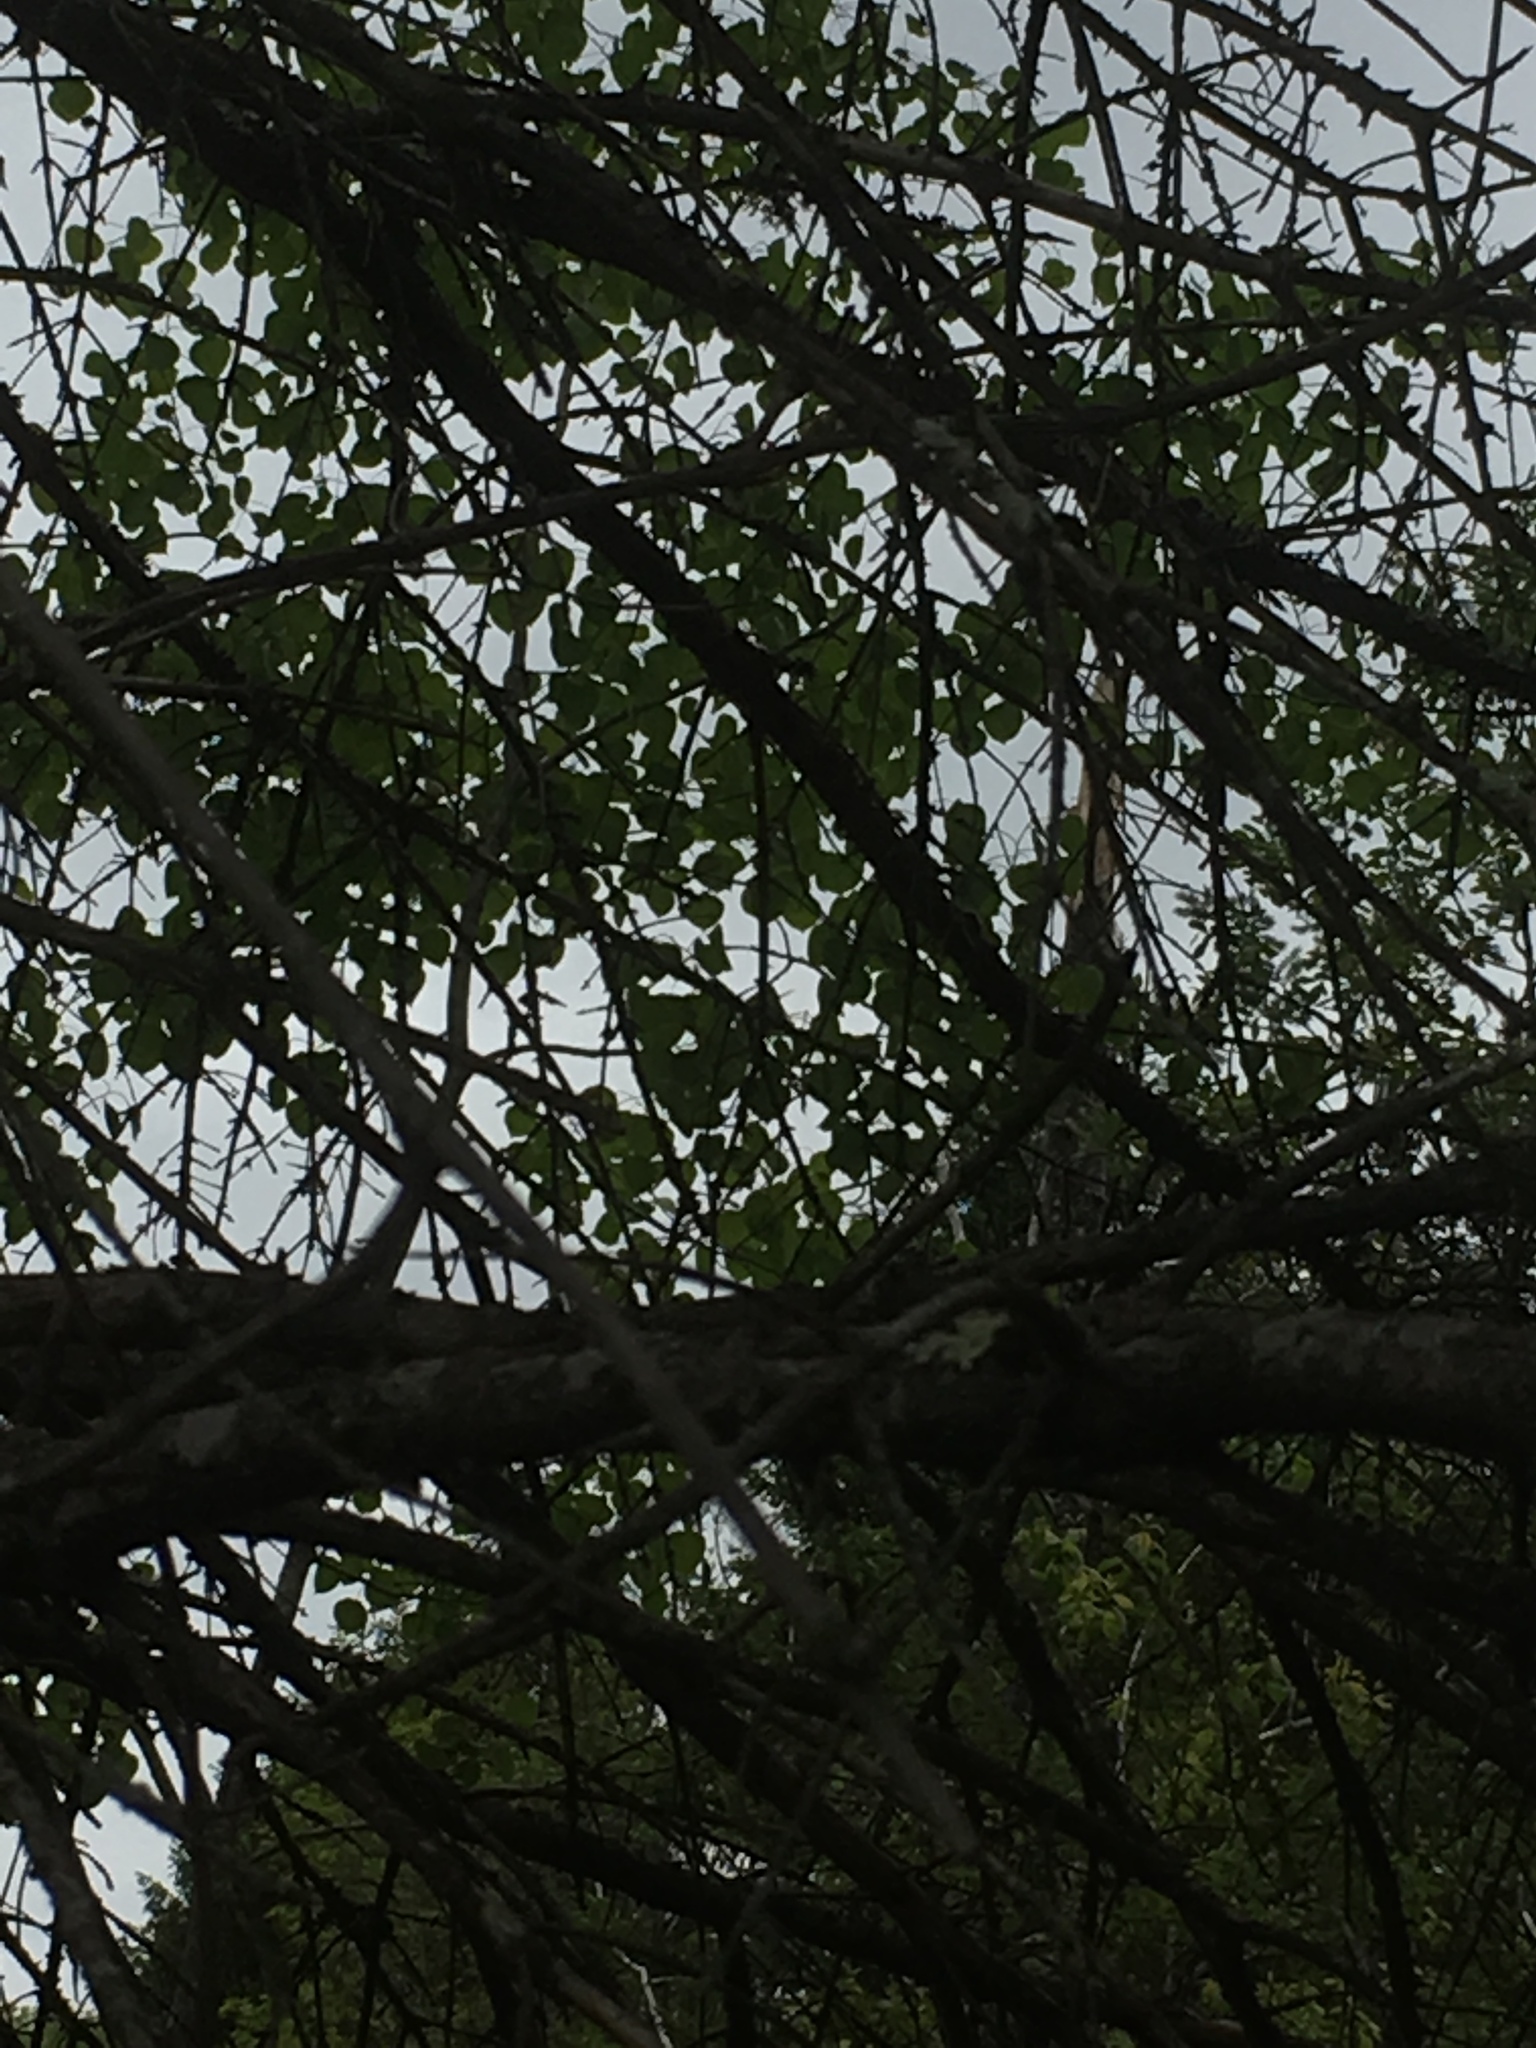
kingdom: Plantae
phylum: Tracheophyta
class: Magnoliopsida
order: Malpighiales
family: Salicaceae
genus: Populus
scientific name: Populus tremuloides
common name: Quaking aspen
